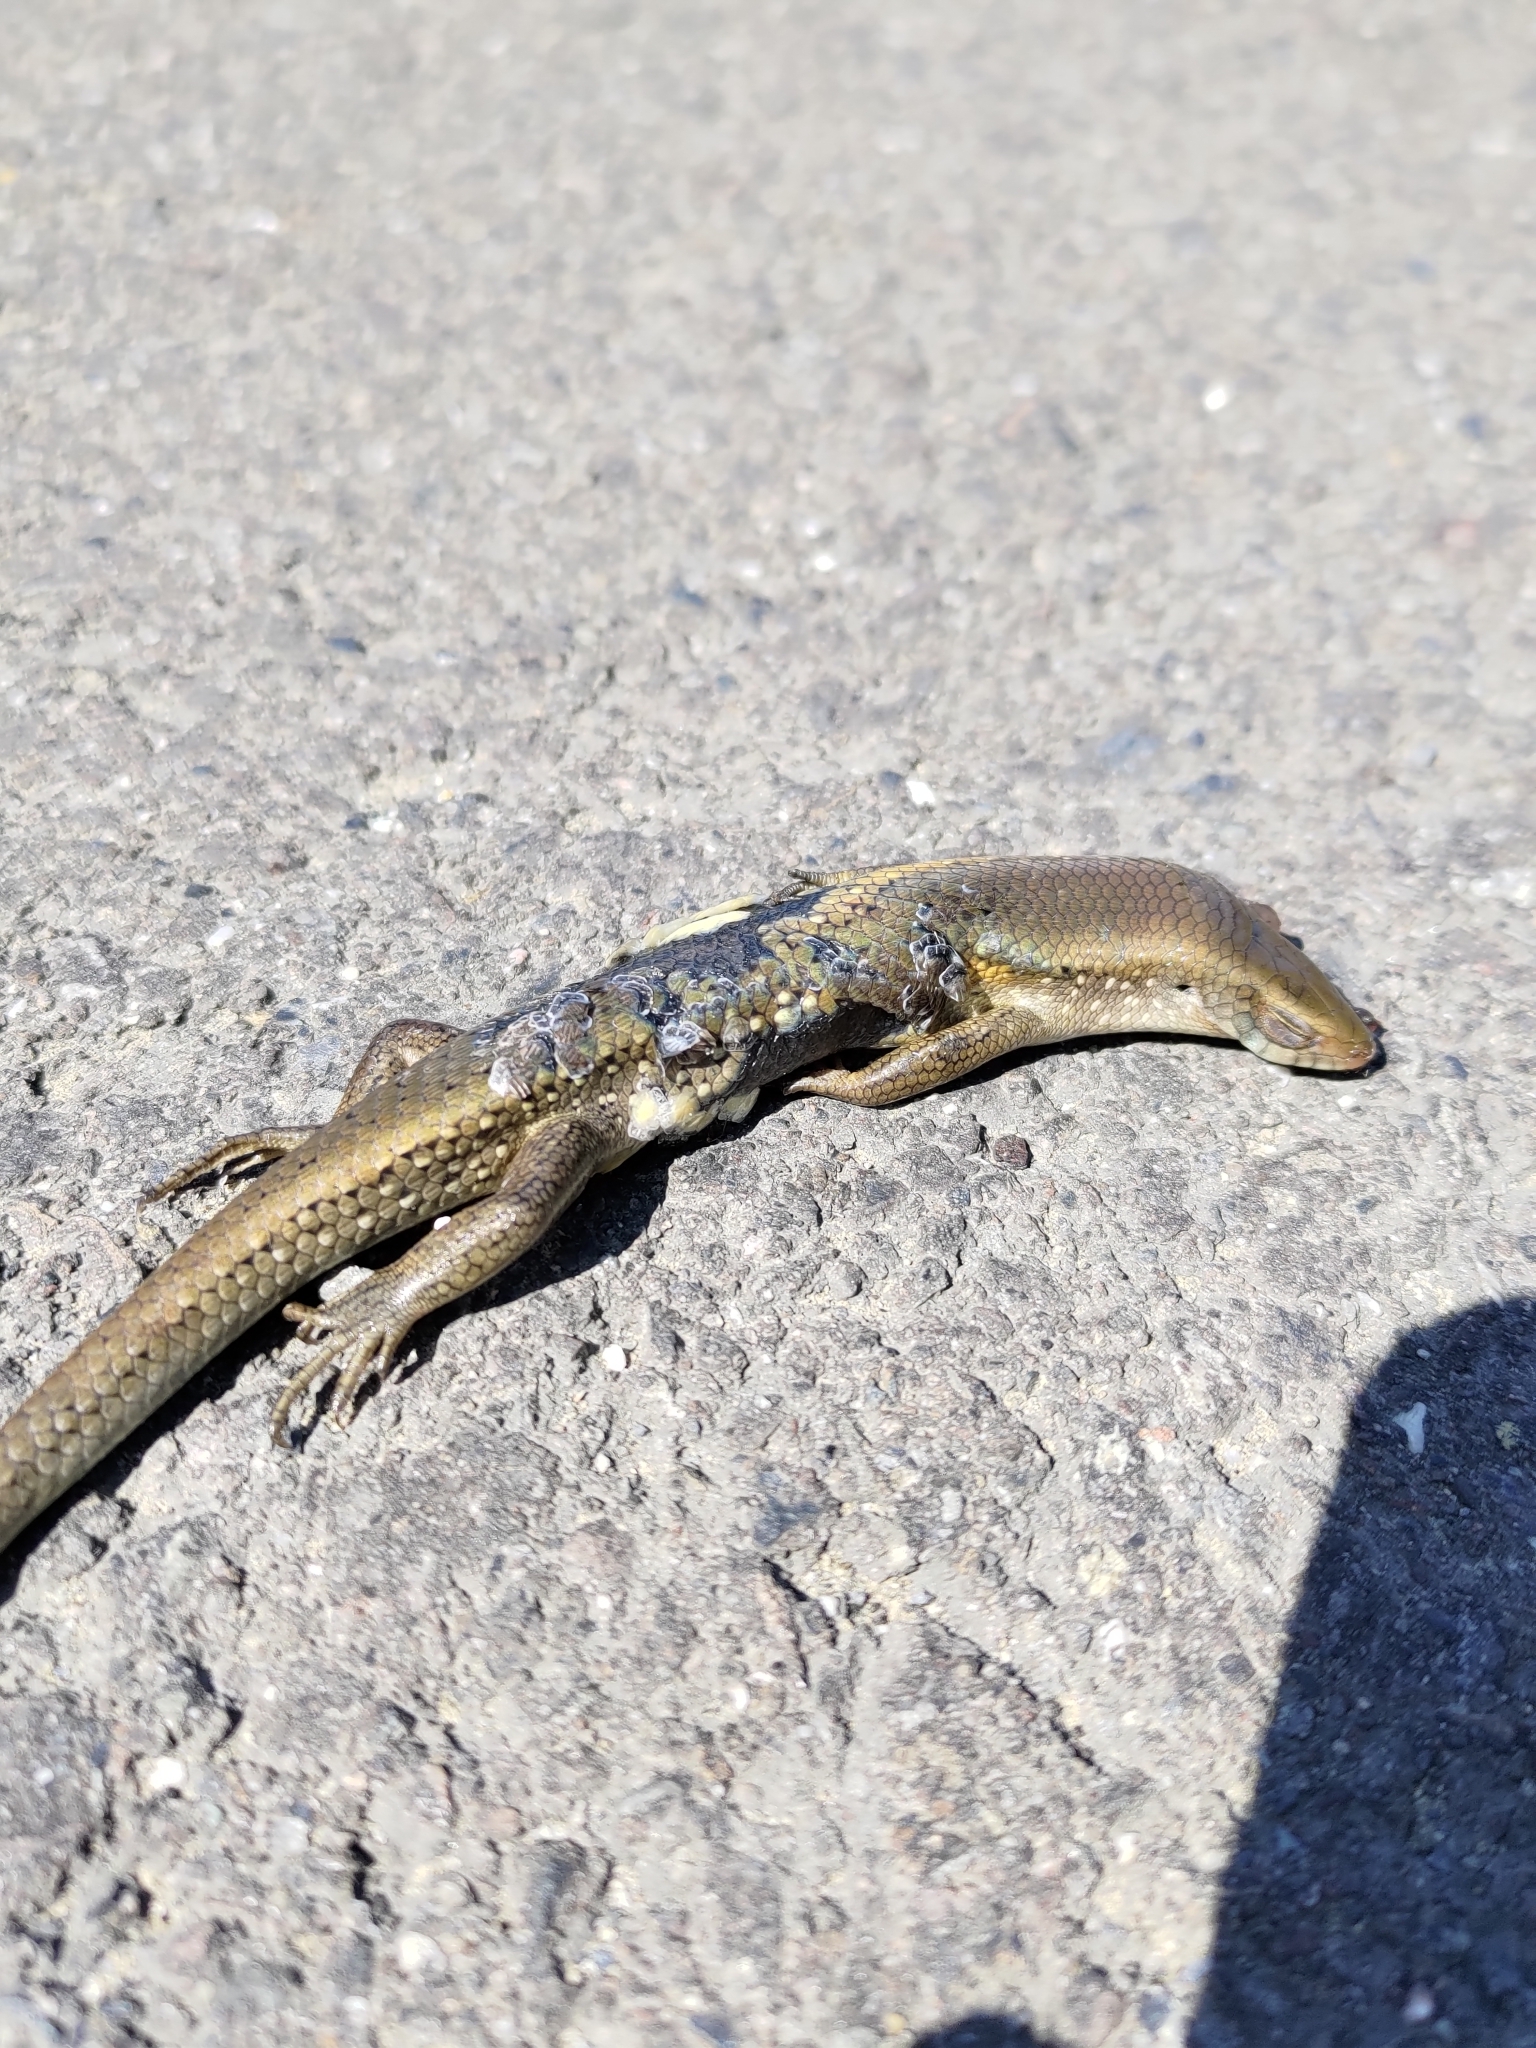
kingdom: Animalia
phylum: Chordata
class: Squamata
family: Scincidae
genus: Eutropis
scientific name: Eutropis multifasciata
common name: Common mabuya
